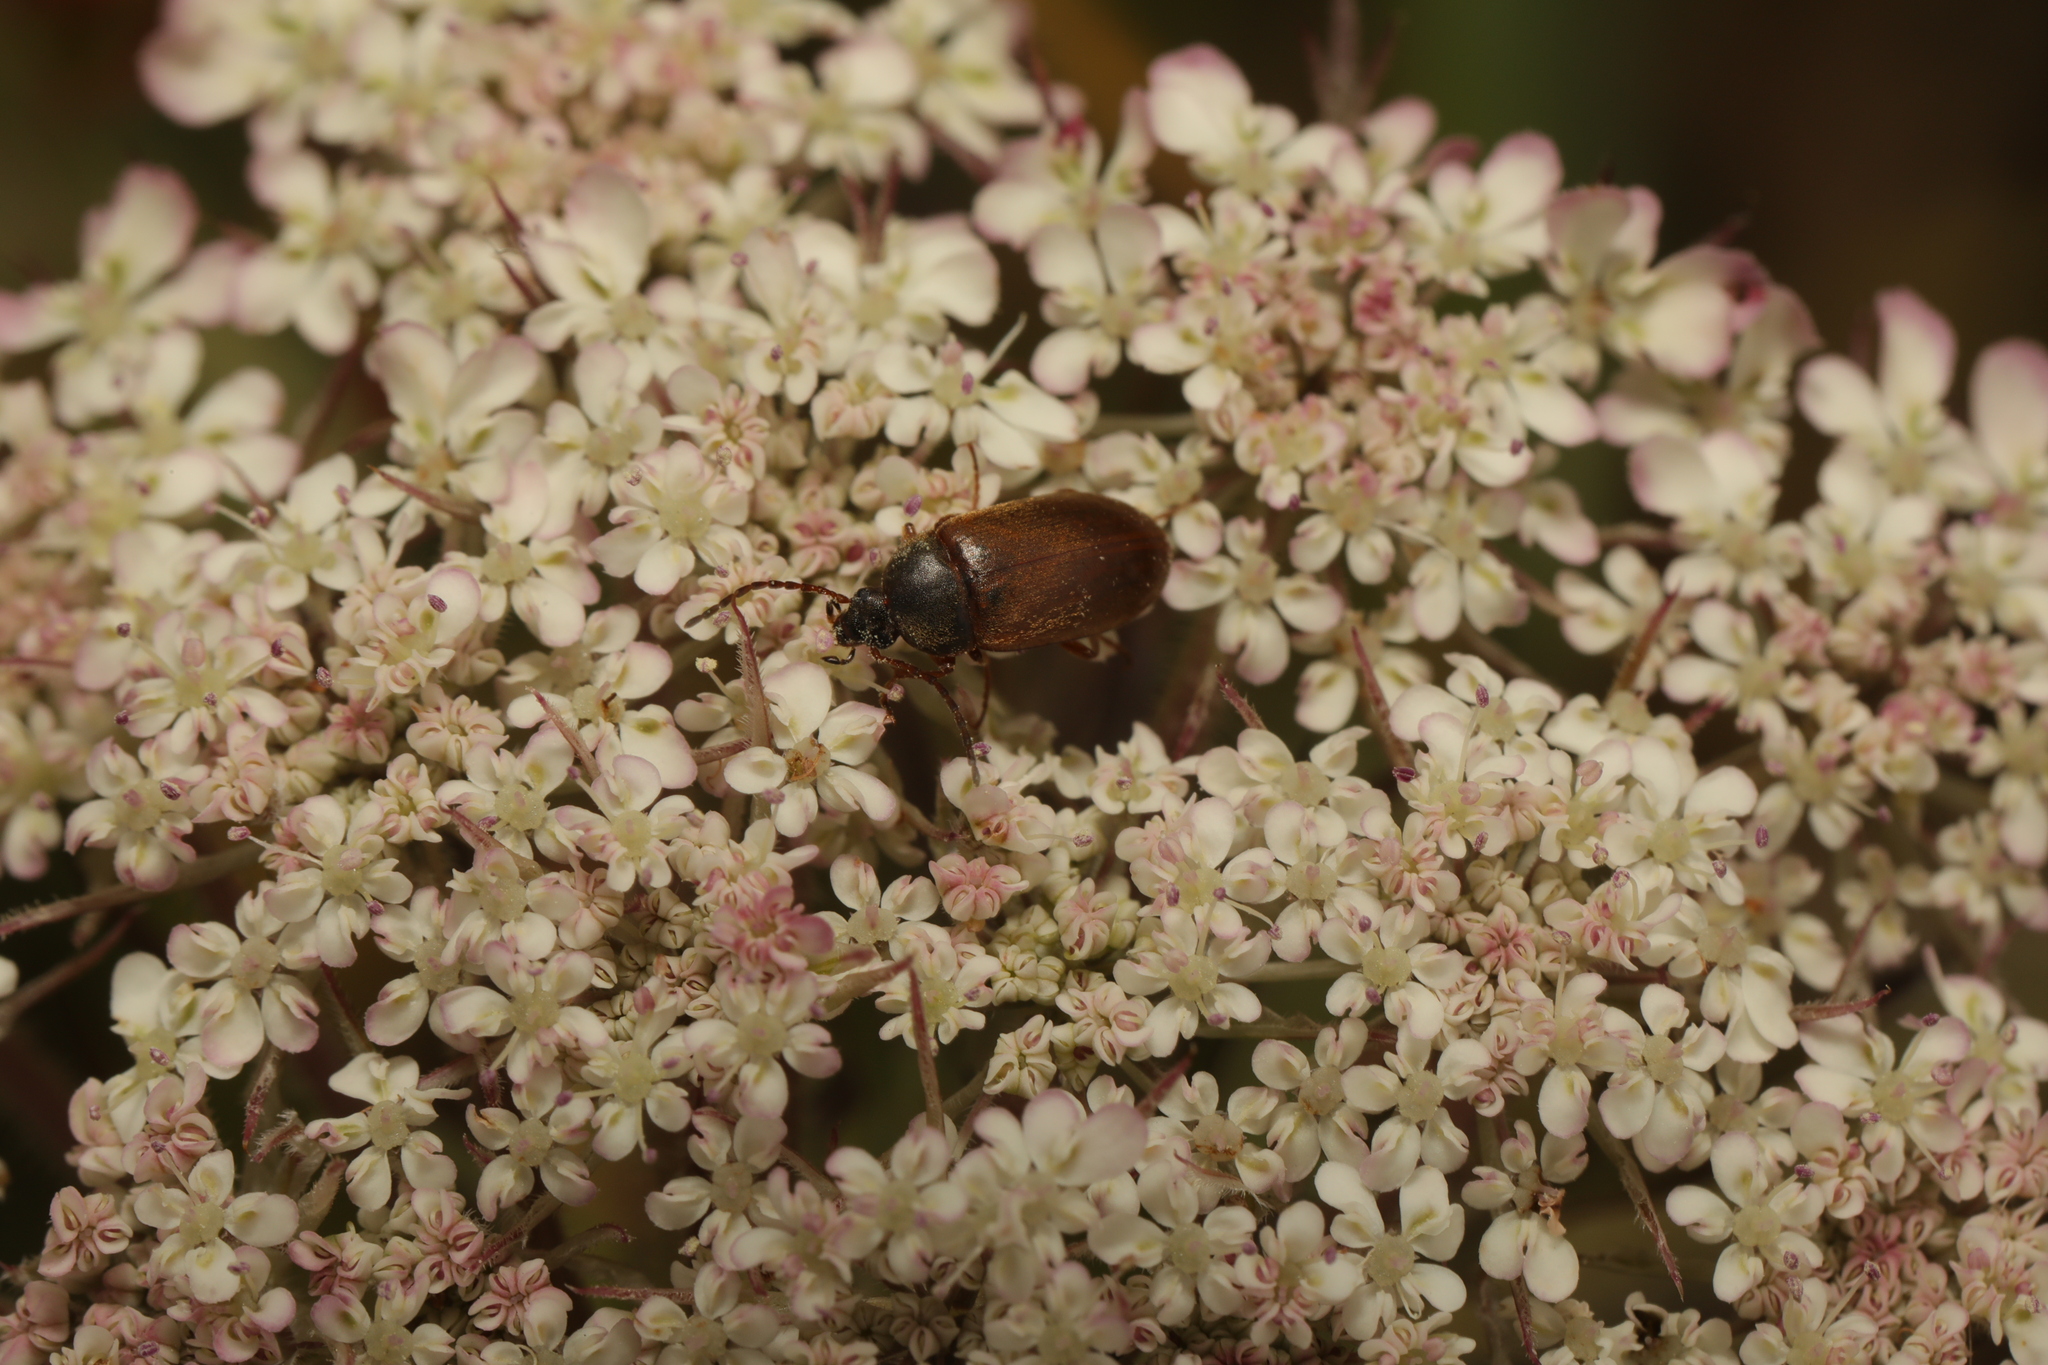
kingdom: Animalia
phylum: Arthropoda
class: Insecta
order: Coleoptera
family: Tenebrionidae
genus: Isomira
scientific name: Isomira murina
